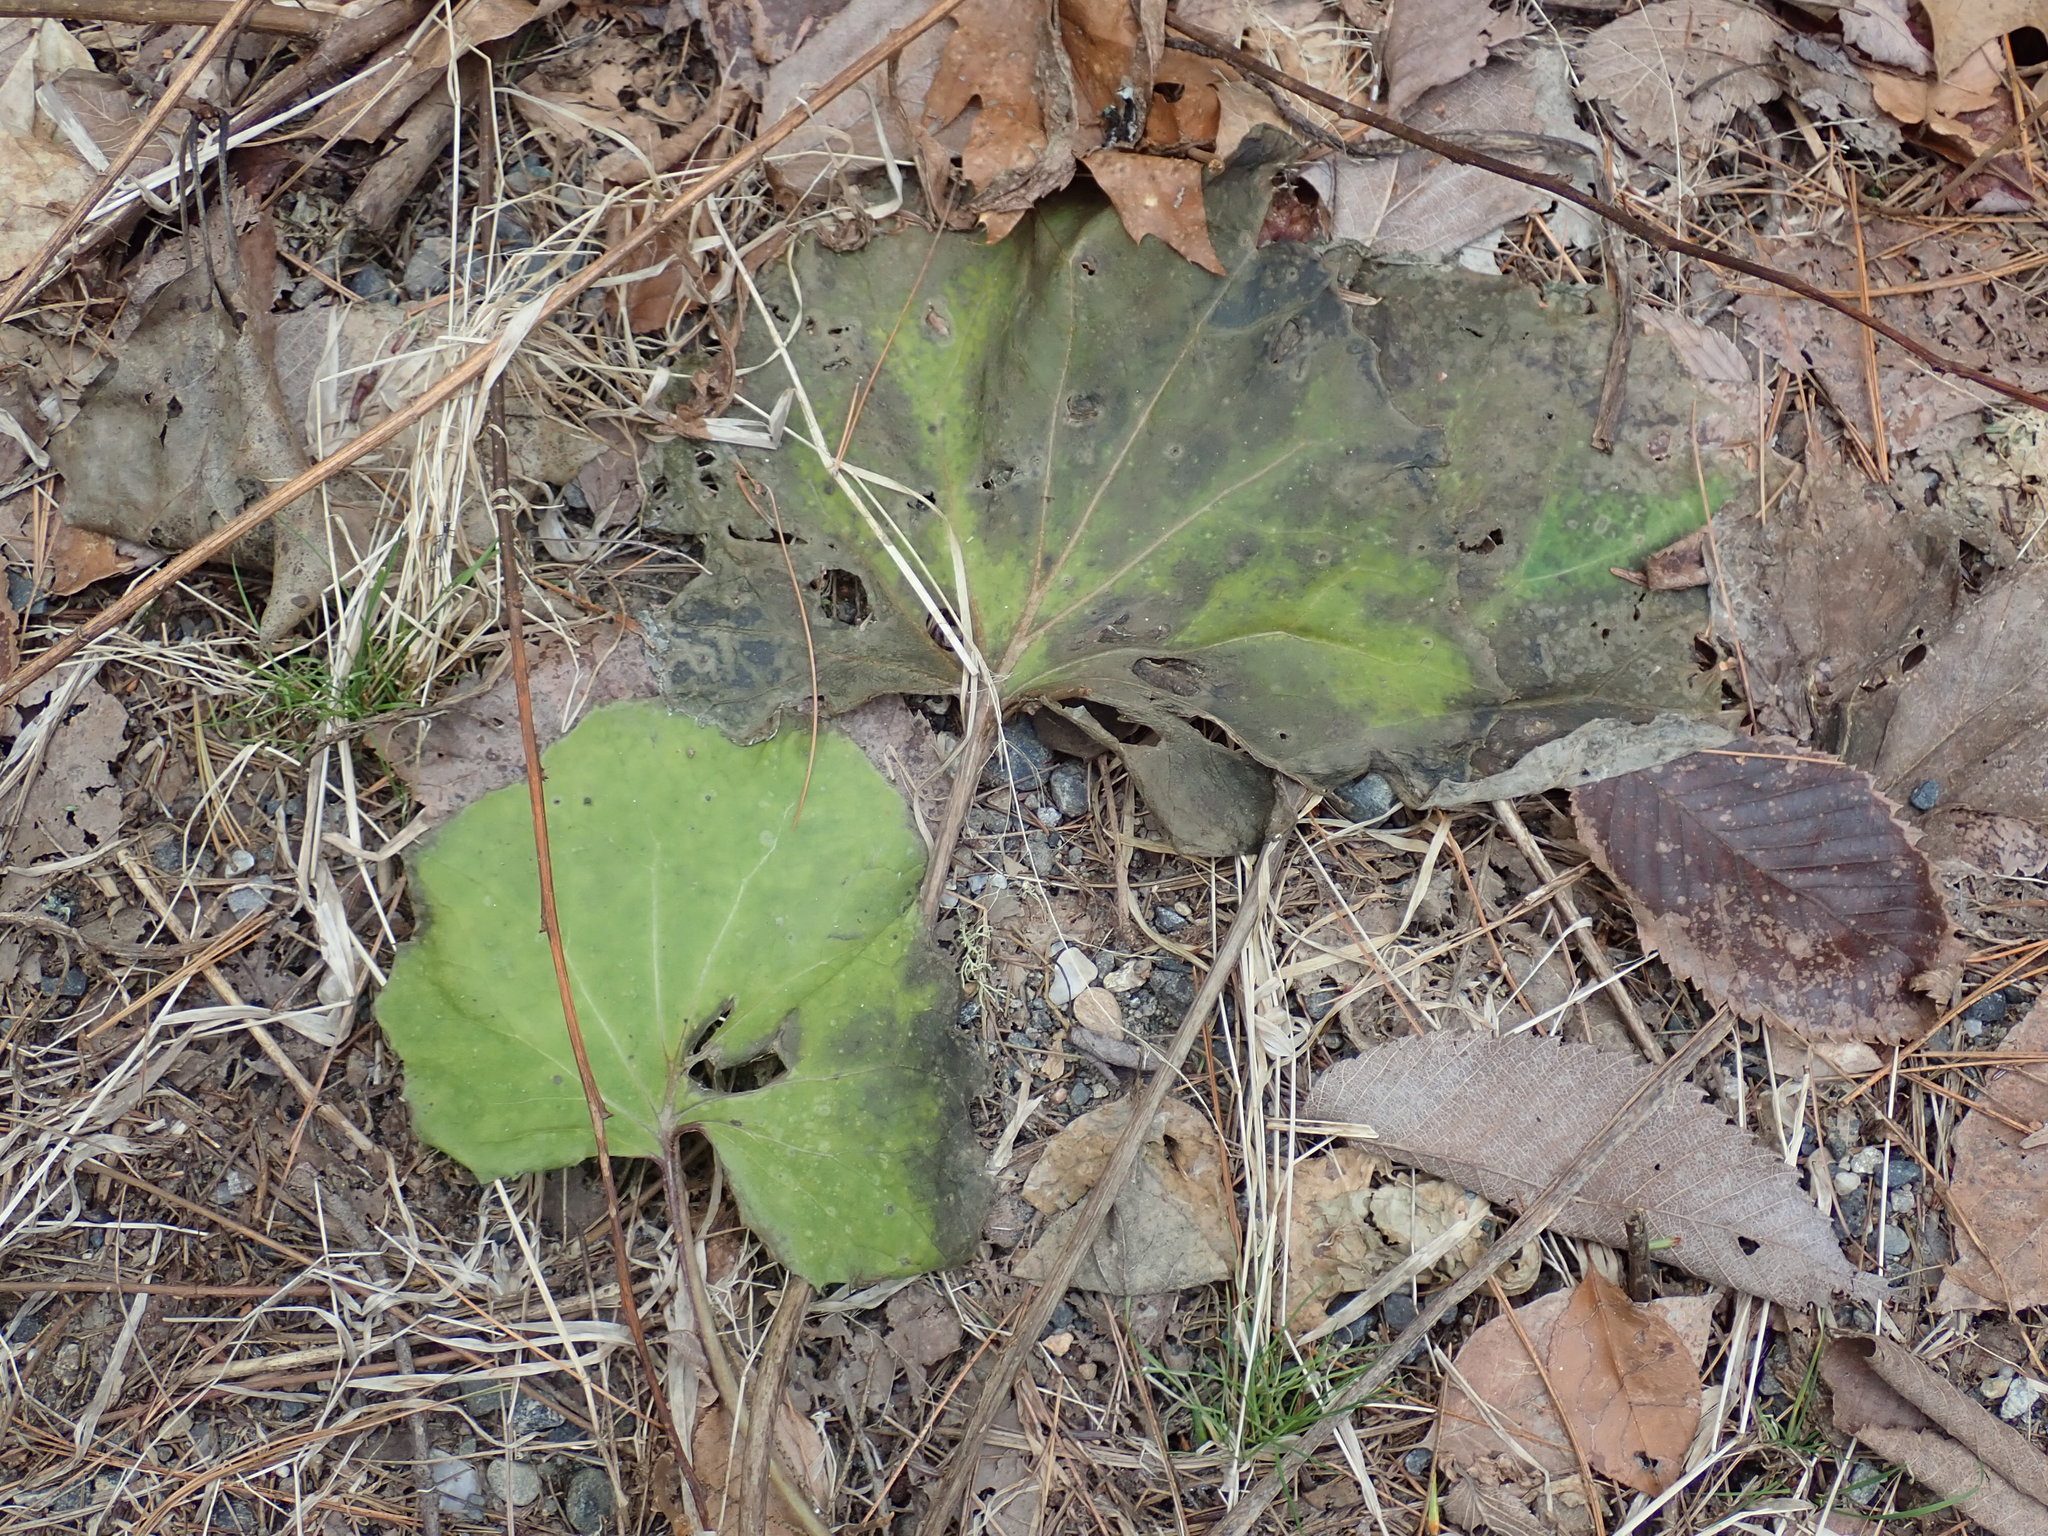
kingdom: Plantae
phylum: Tracheophyta
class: Magnoliopsida
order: Asterales
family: Asteraceae
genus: Tussilago
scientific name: Tussilago farfara
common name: Coltsfoot
